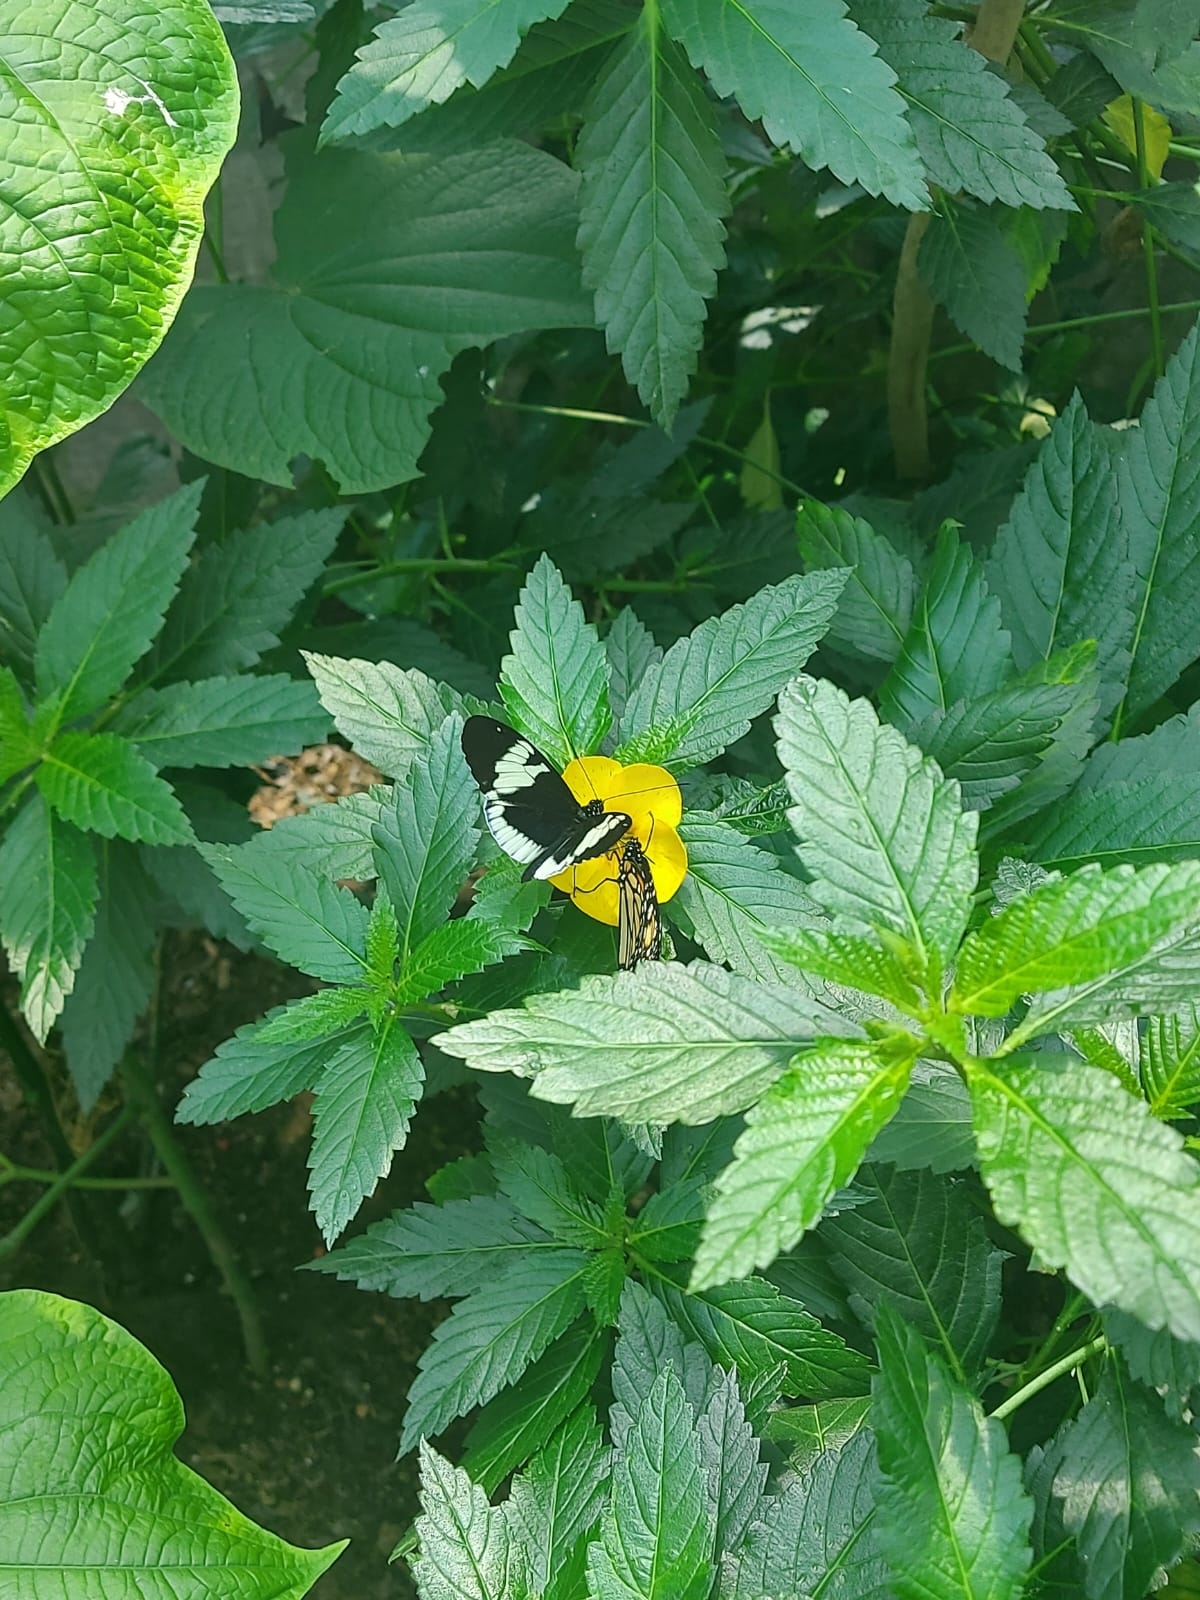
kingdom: Animalia
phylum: Arthropoda
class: Insecta
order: Lepidoptera
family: Nymphalidae
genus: Heliconius
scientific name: Heliconius cydno
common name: Cydno longwing
